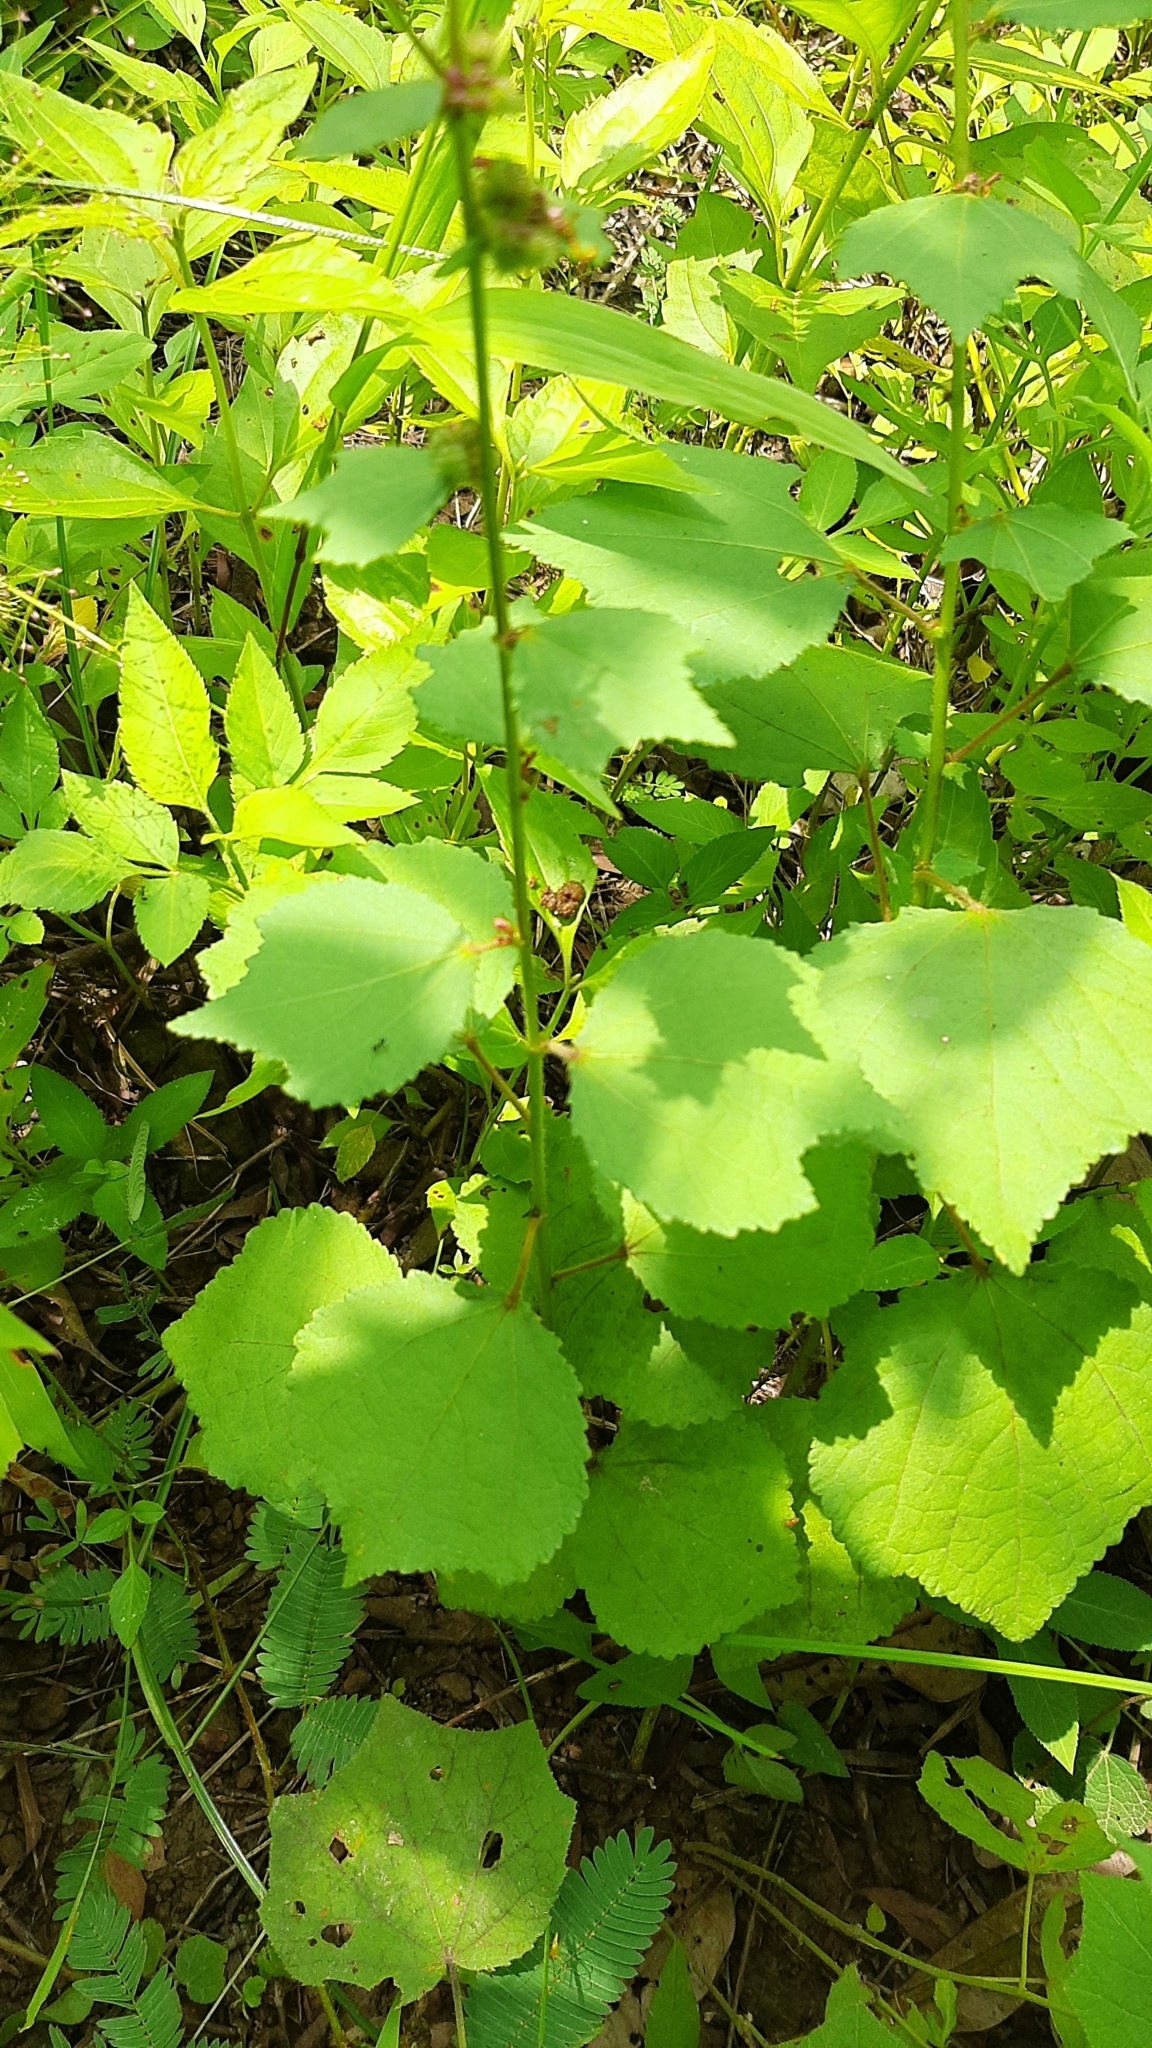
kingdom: Plantae
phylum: Tracheophyta
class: Magnoliopsida
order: Malvales
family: Malvaceae
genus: Triumfetta
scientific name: Triumfetta rhomboidea
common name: Diamond burbark
